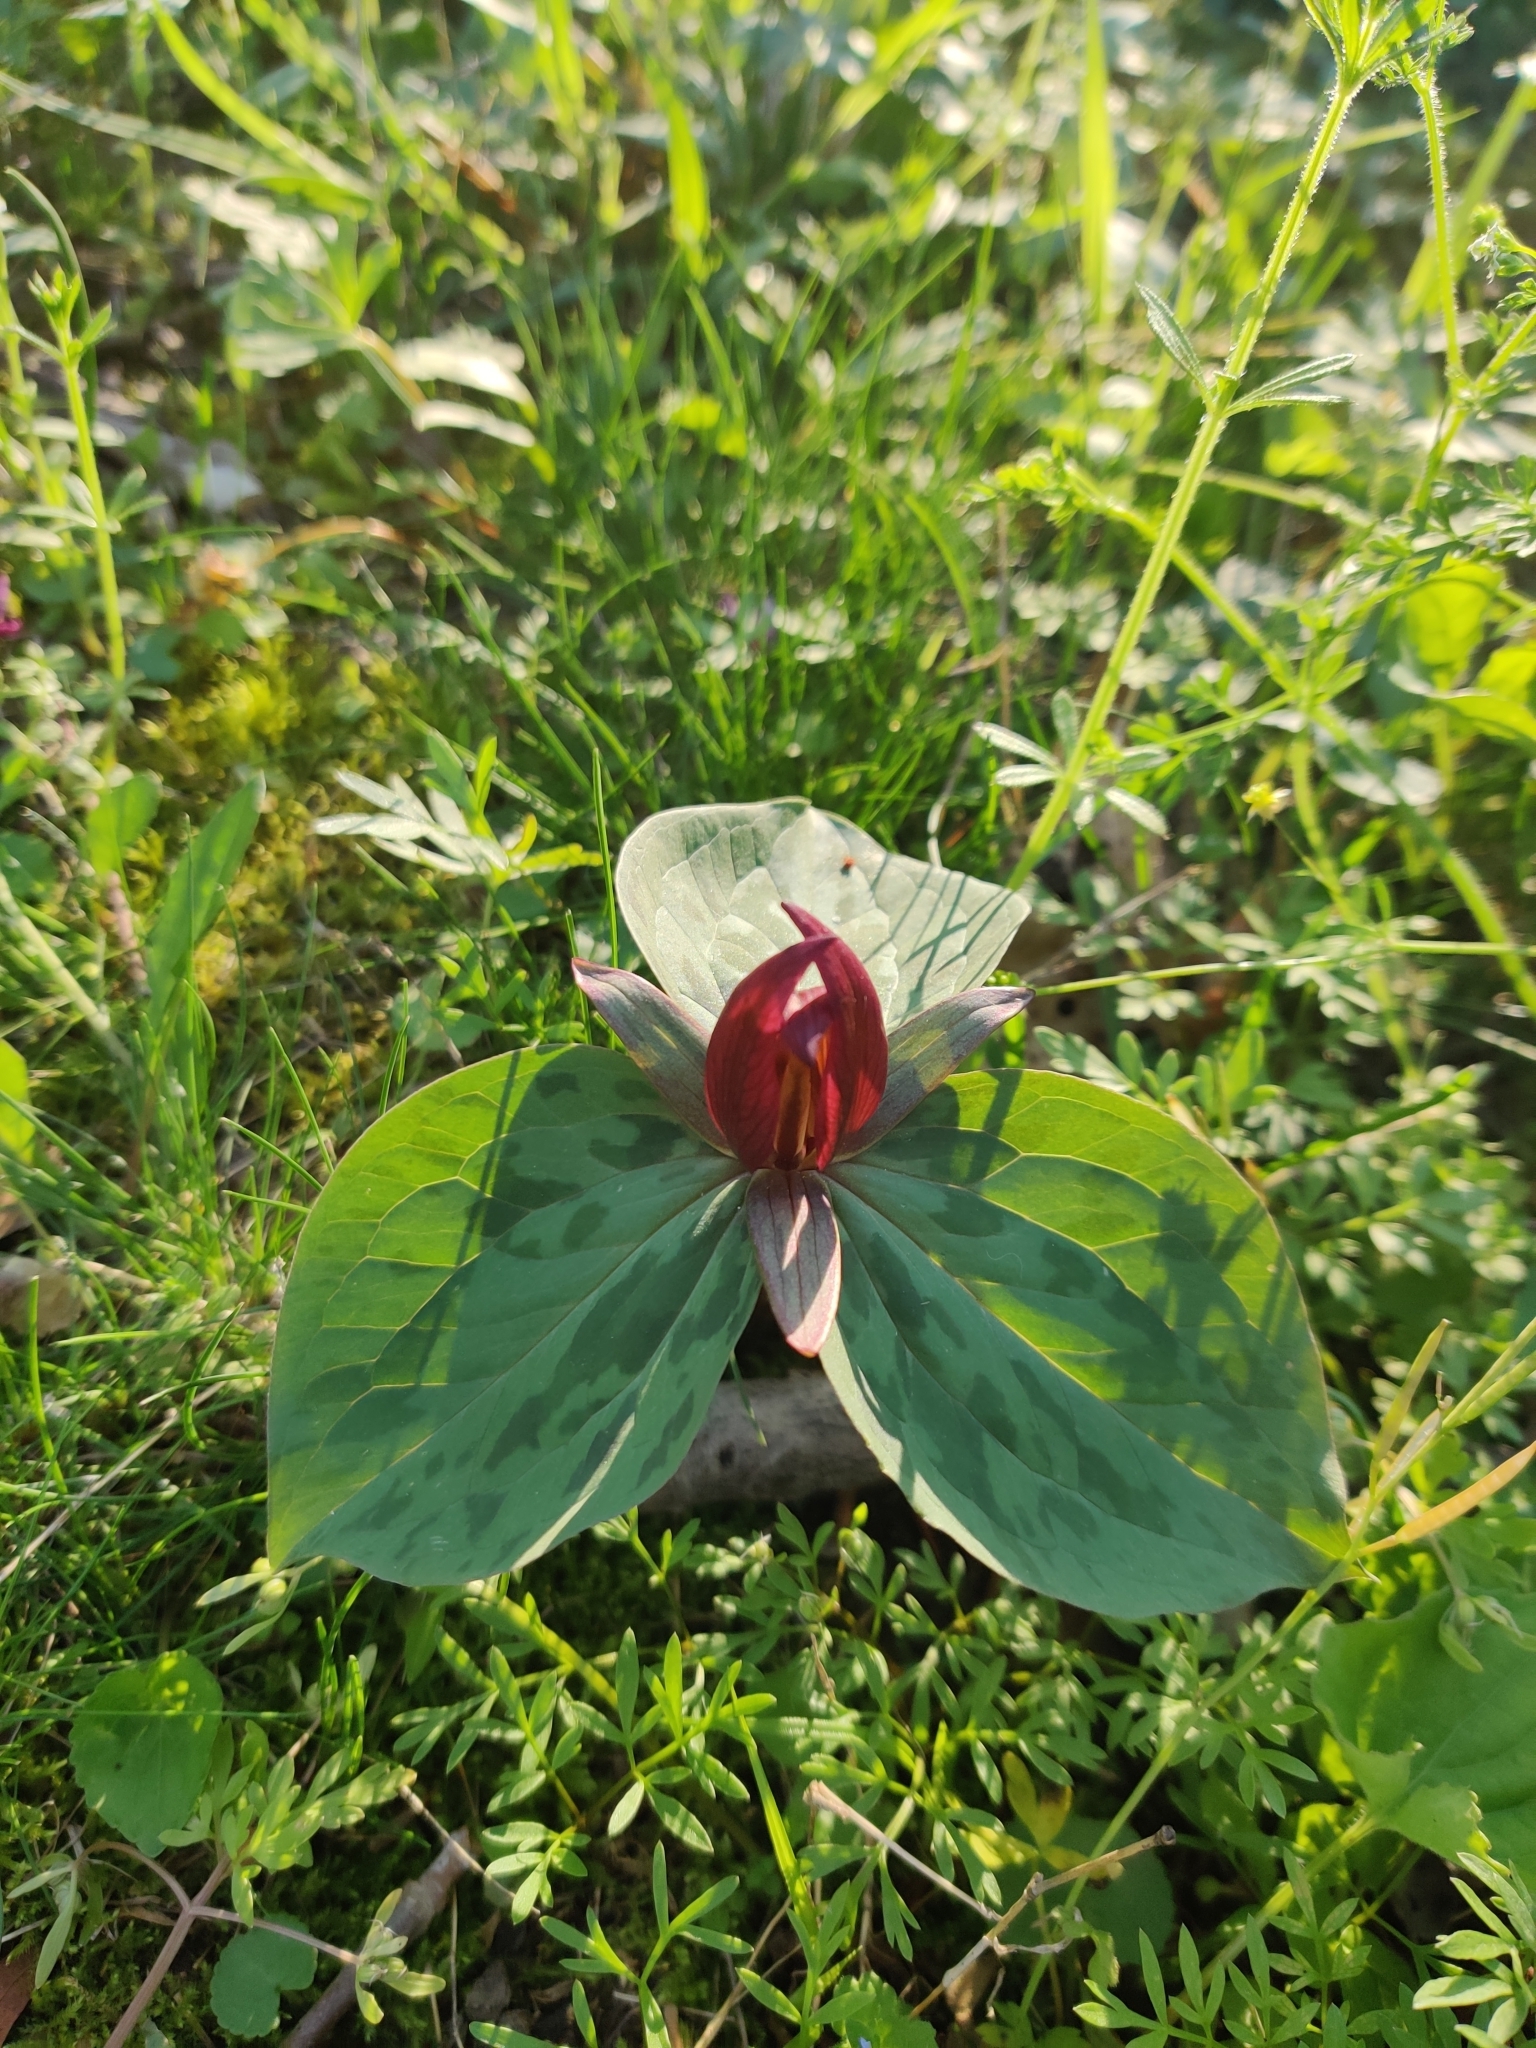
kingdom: Plantae
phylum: Tracheophyta
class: Liliopsida
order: Liliales
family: Melanthiaceae
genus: Trillium
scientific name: Trillium sessile
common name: Sessile trillium
